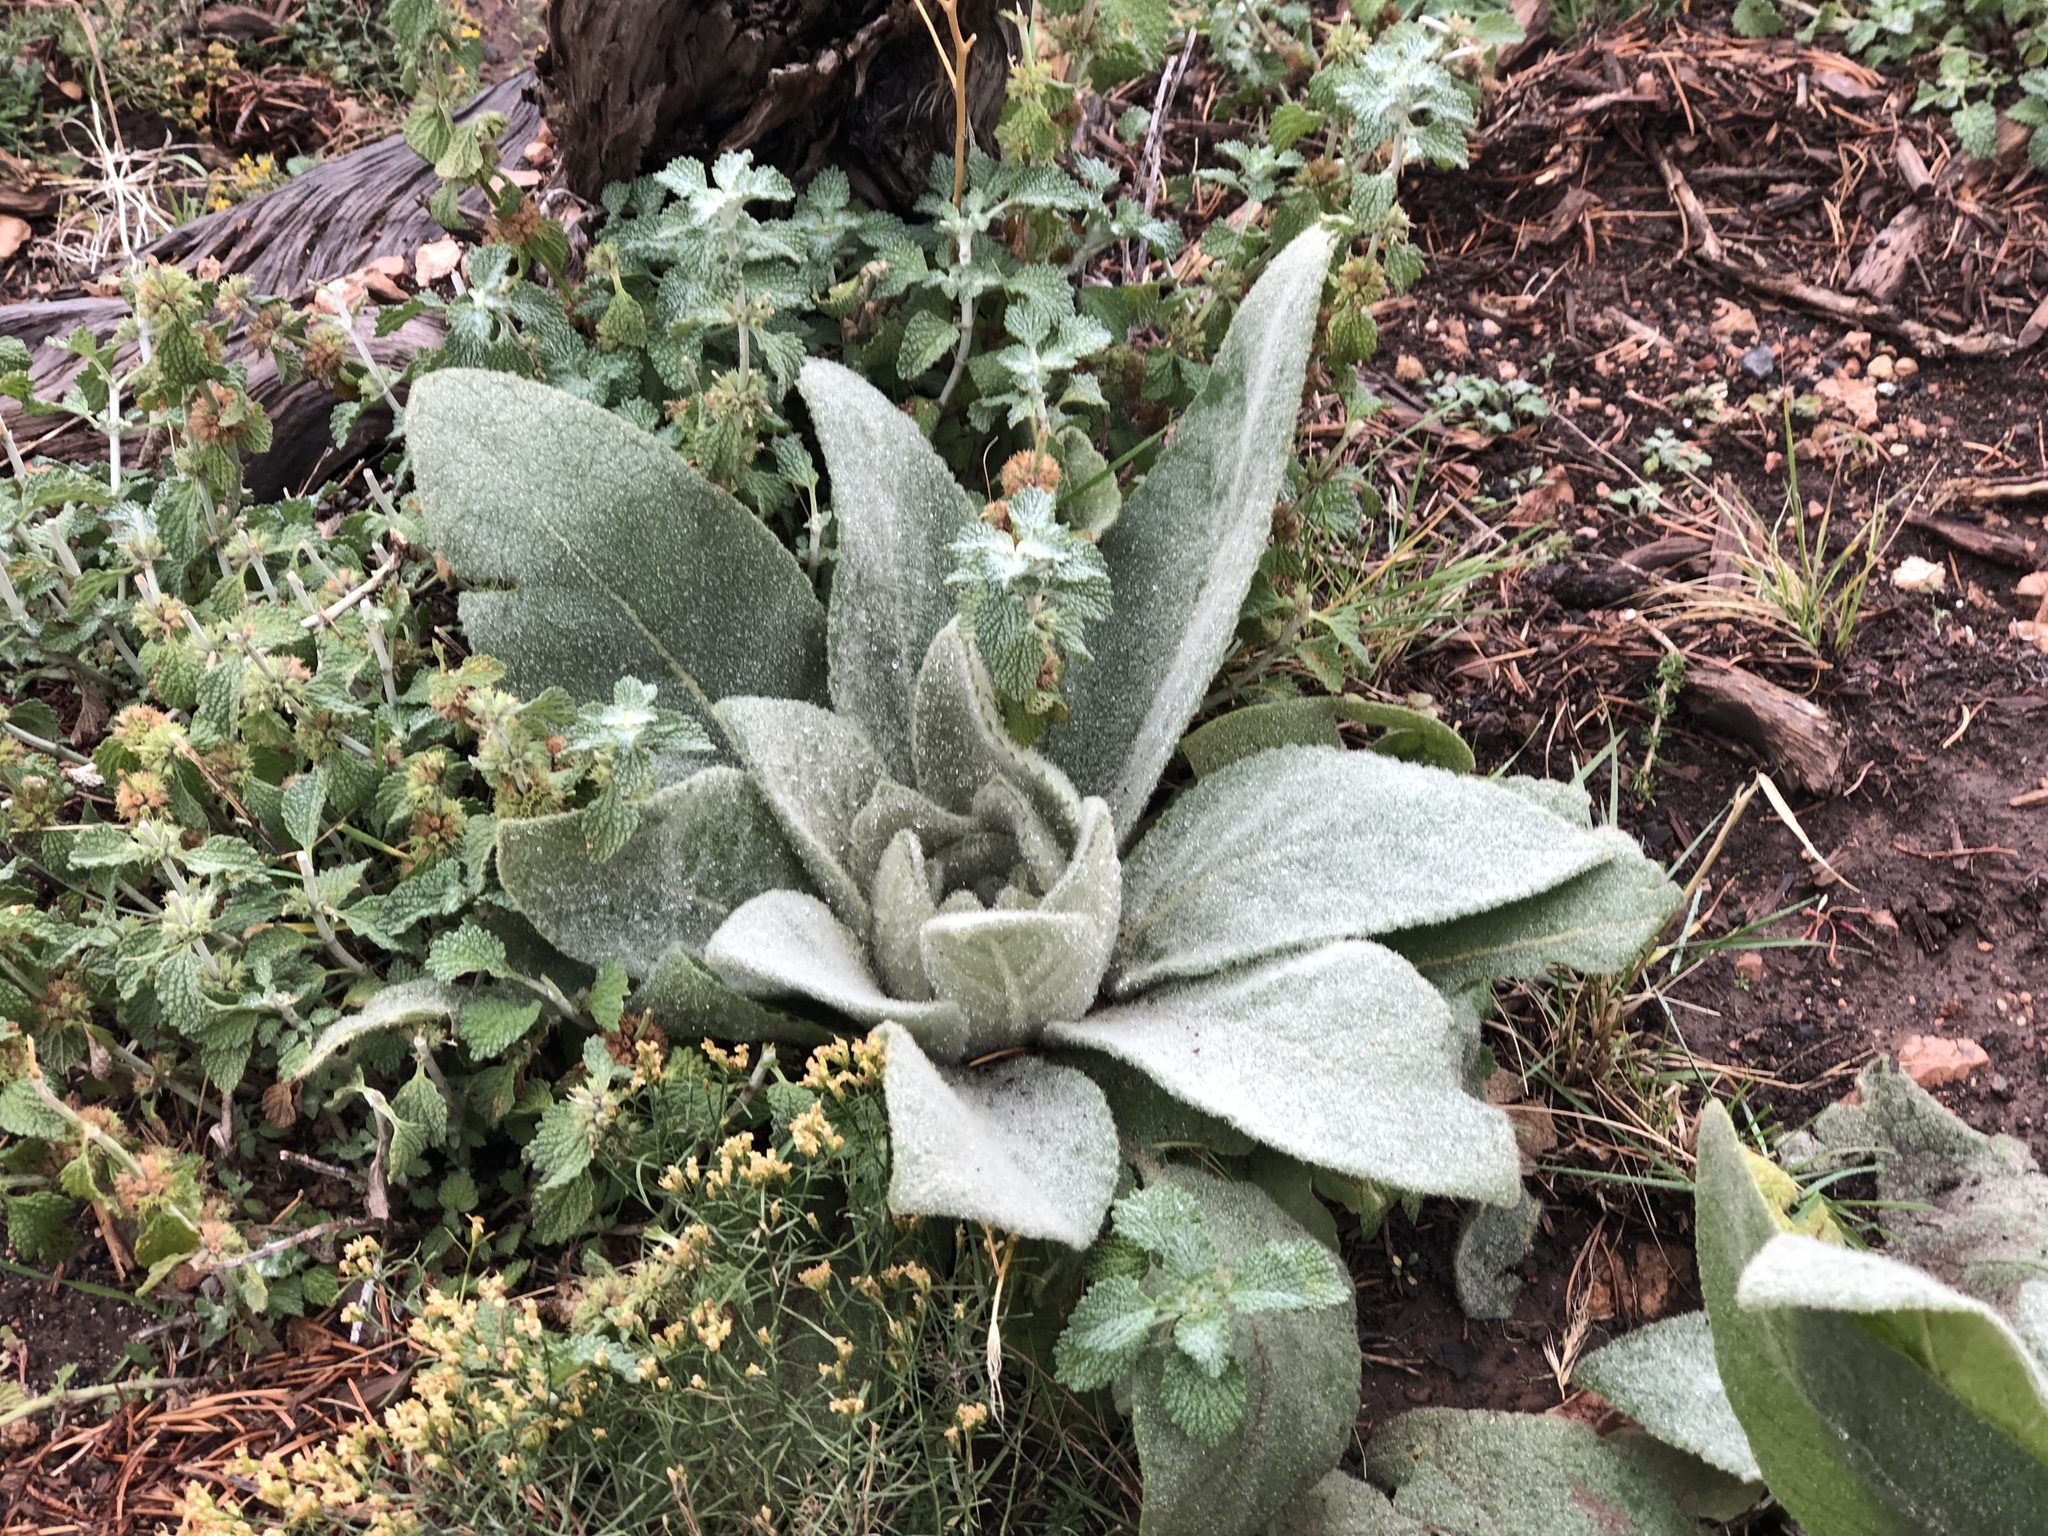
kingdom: Plantae
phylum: Tracheophyta
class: Magnoliopsida
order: Lamiales
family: Scrophulariaceae
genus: Verbascum
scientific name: Verbascum thapsus
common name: Common mullein
